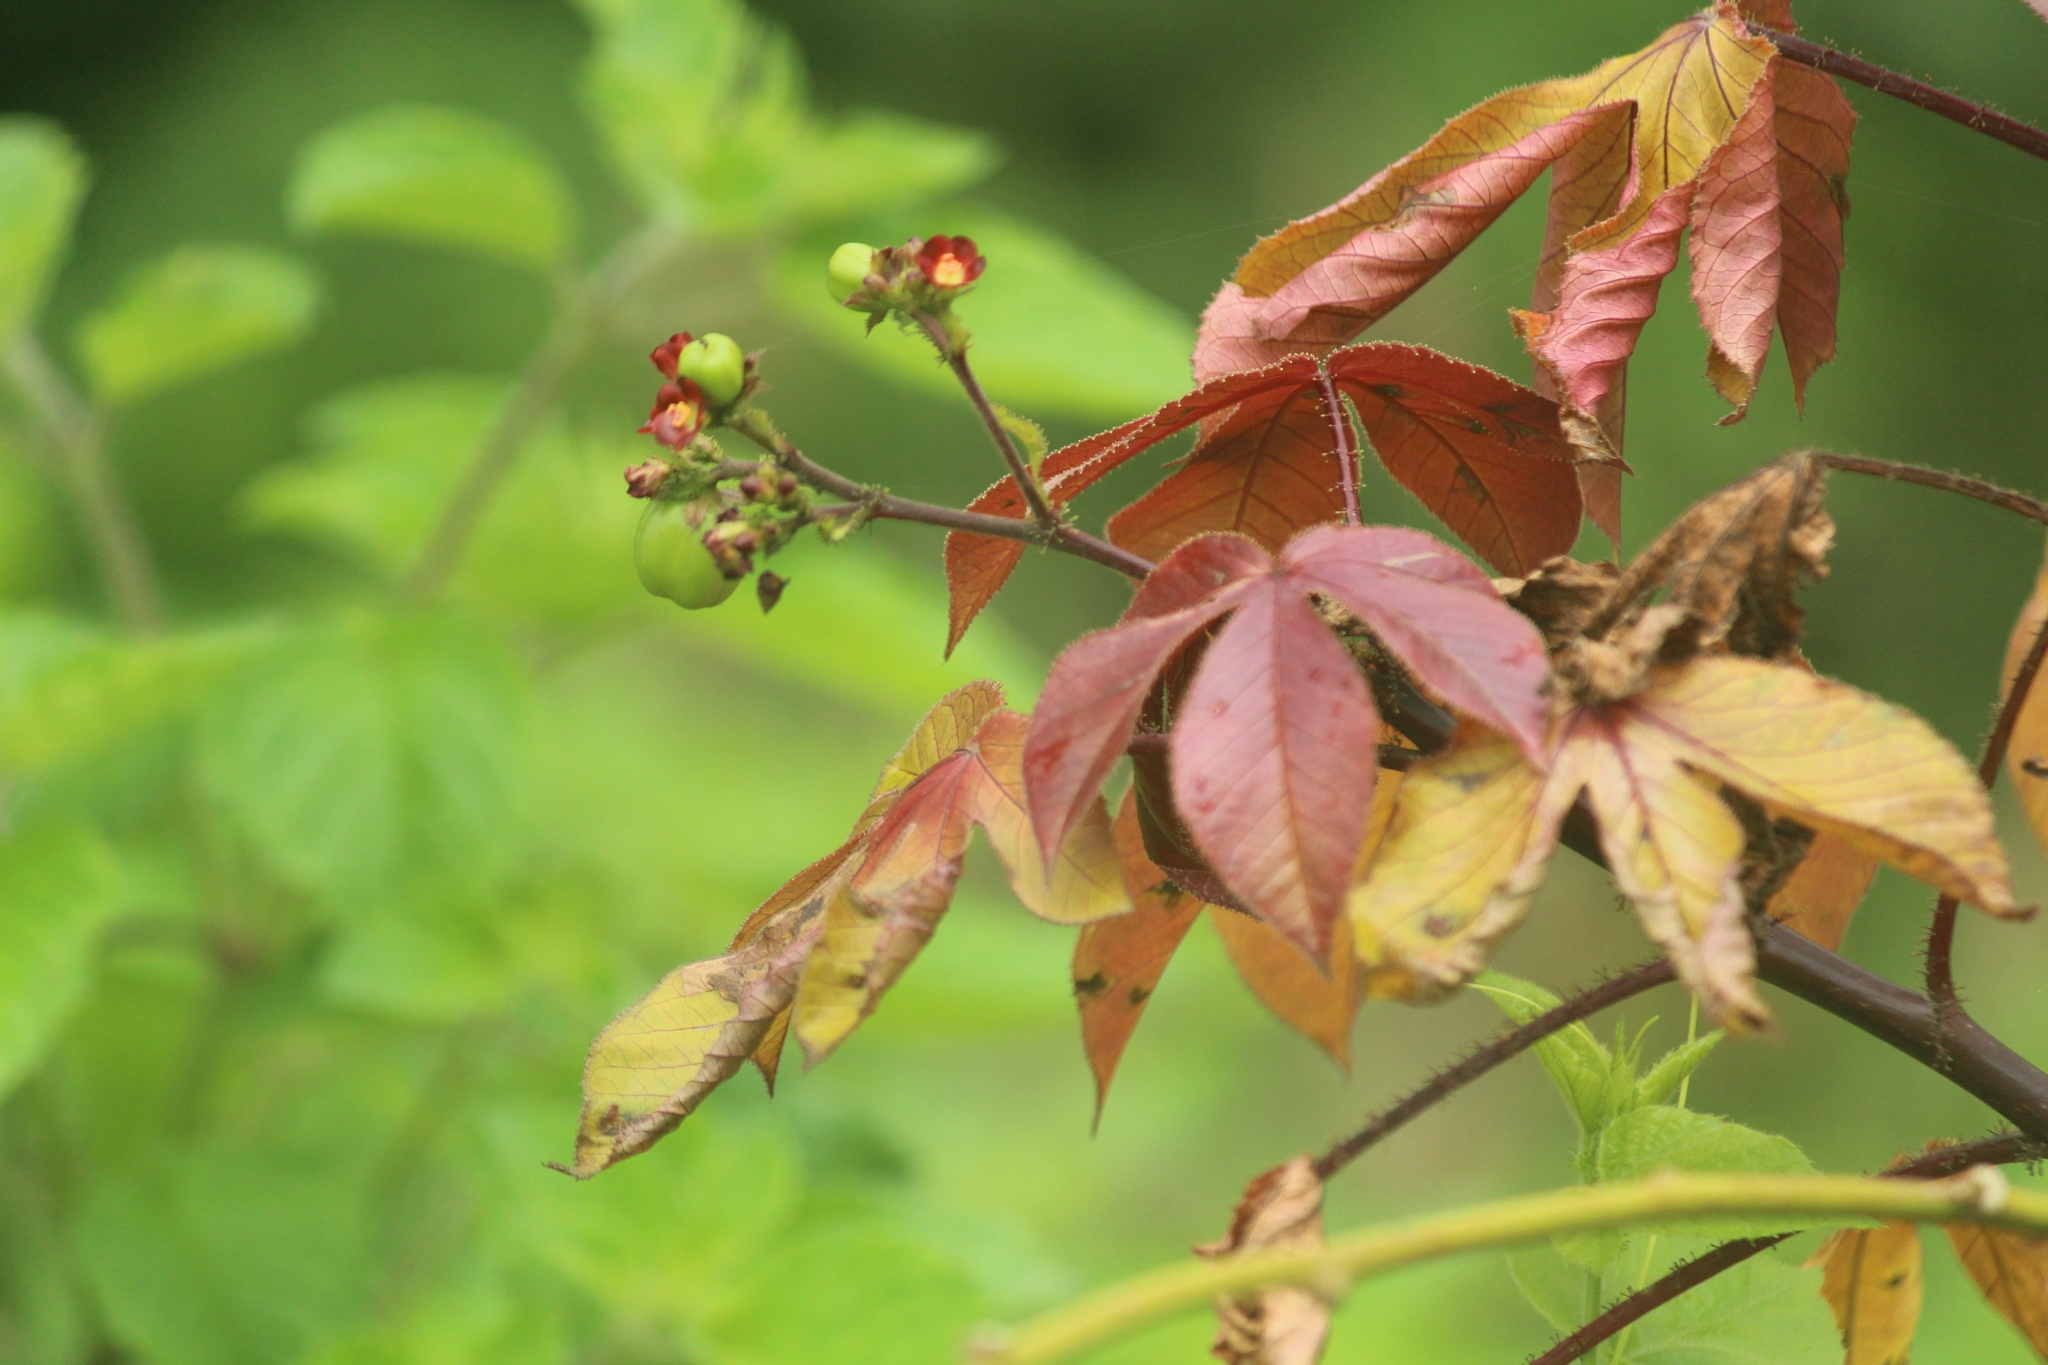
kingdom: Plantae
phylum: Tracheophyta
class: Magnoliopsida
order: Malpighiales
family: Euphorbiaceae
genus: Jatropha
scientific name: Jatropha gossypiifolia
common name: Bellyache bush
